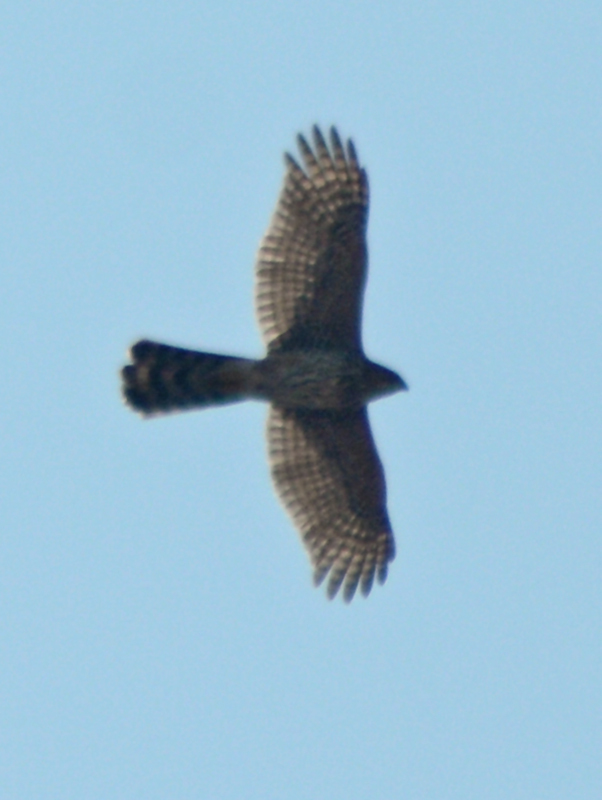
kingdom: Animalia
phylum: Chordata
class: Aves
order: Accipitriformes
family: Accipitridae
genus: Accipiter
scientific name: Accipiter cooperii
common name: Cooper's hawk
